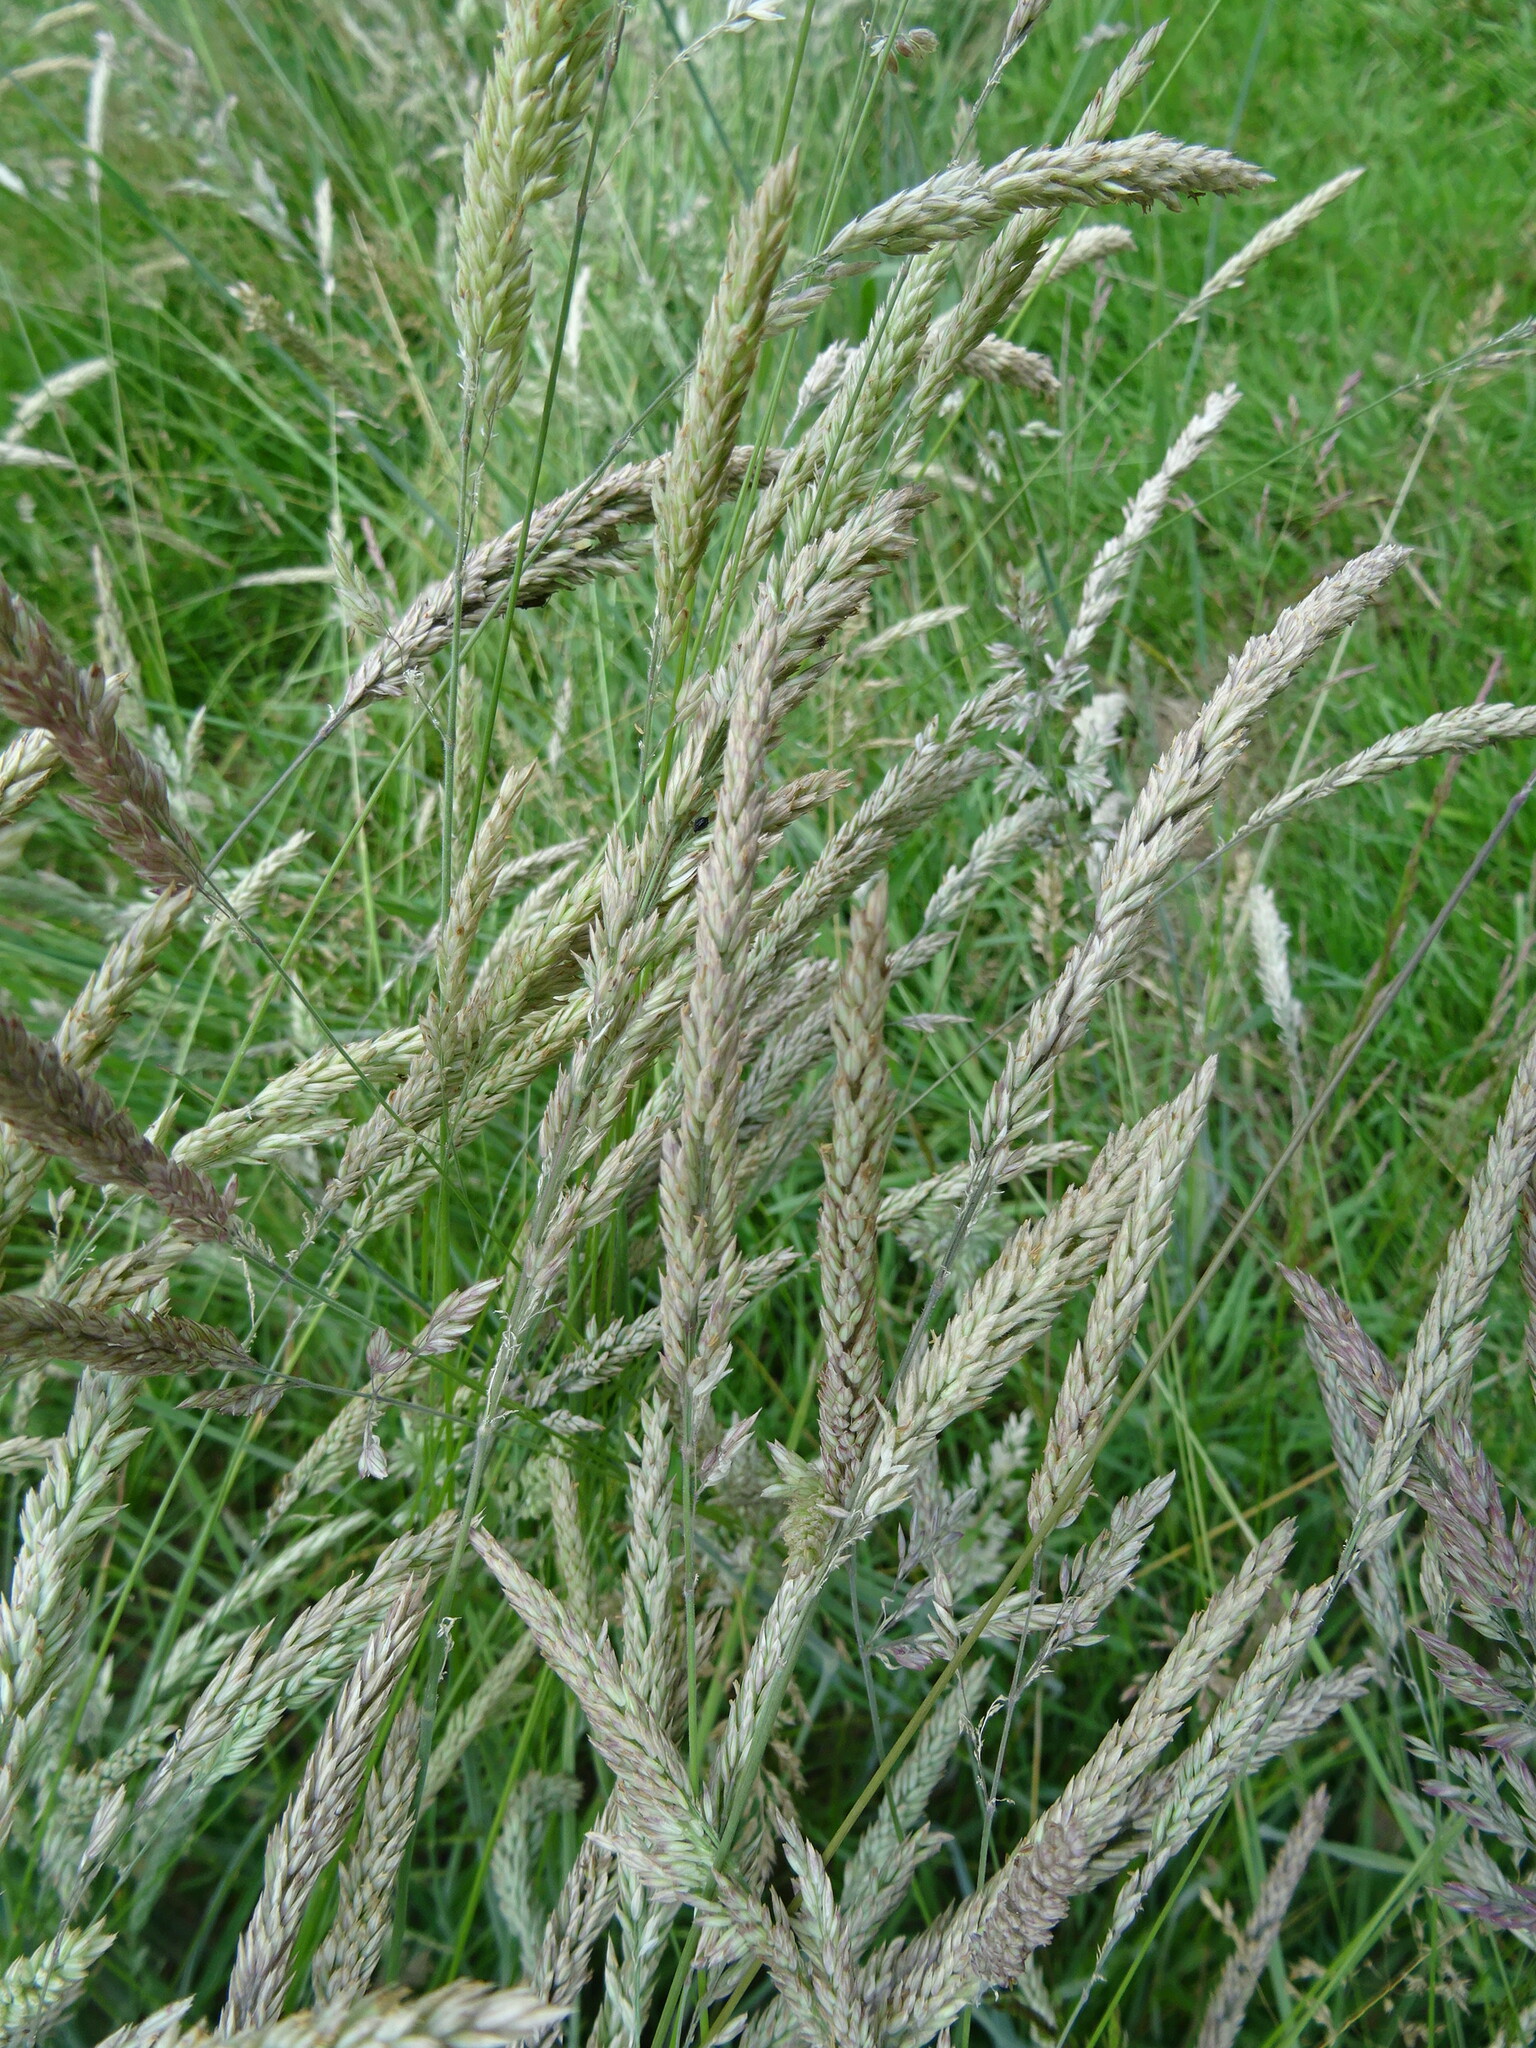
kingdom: Plantae
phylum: Tracheophyta
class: Liliopsida
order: Poales
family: Poaceae
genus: Holcus
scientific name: Holcus lanatus
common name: Yorkshire-fog
